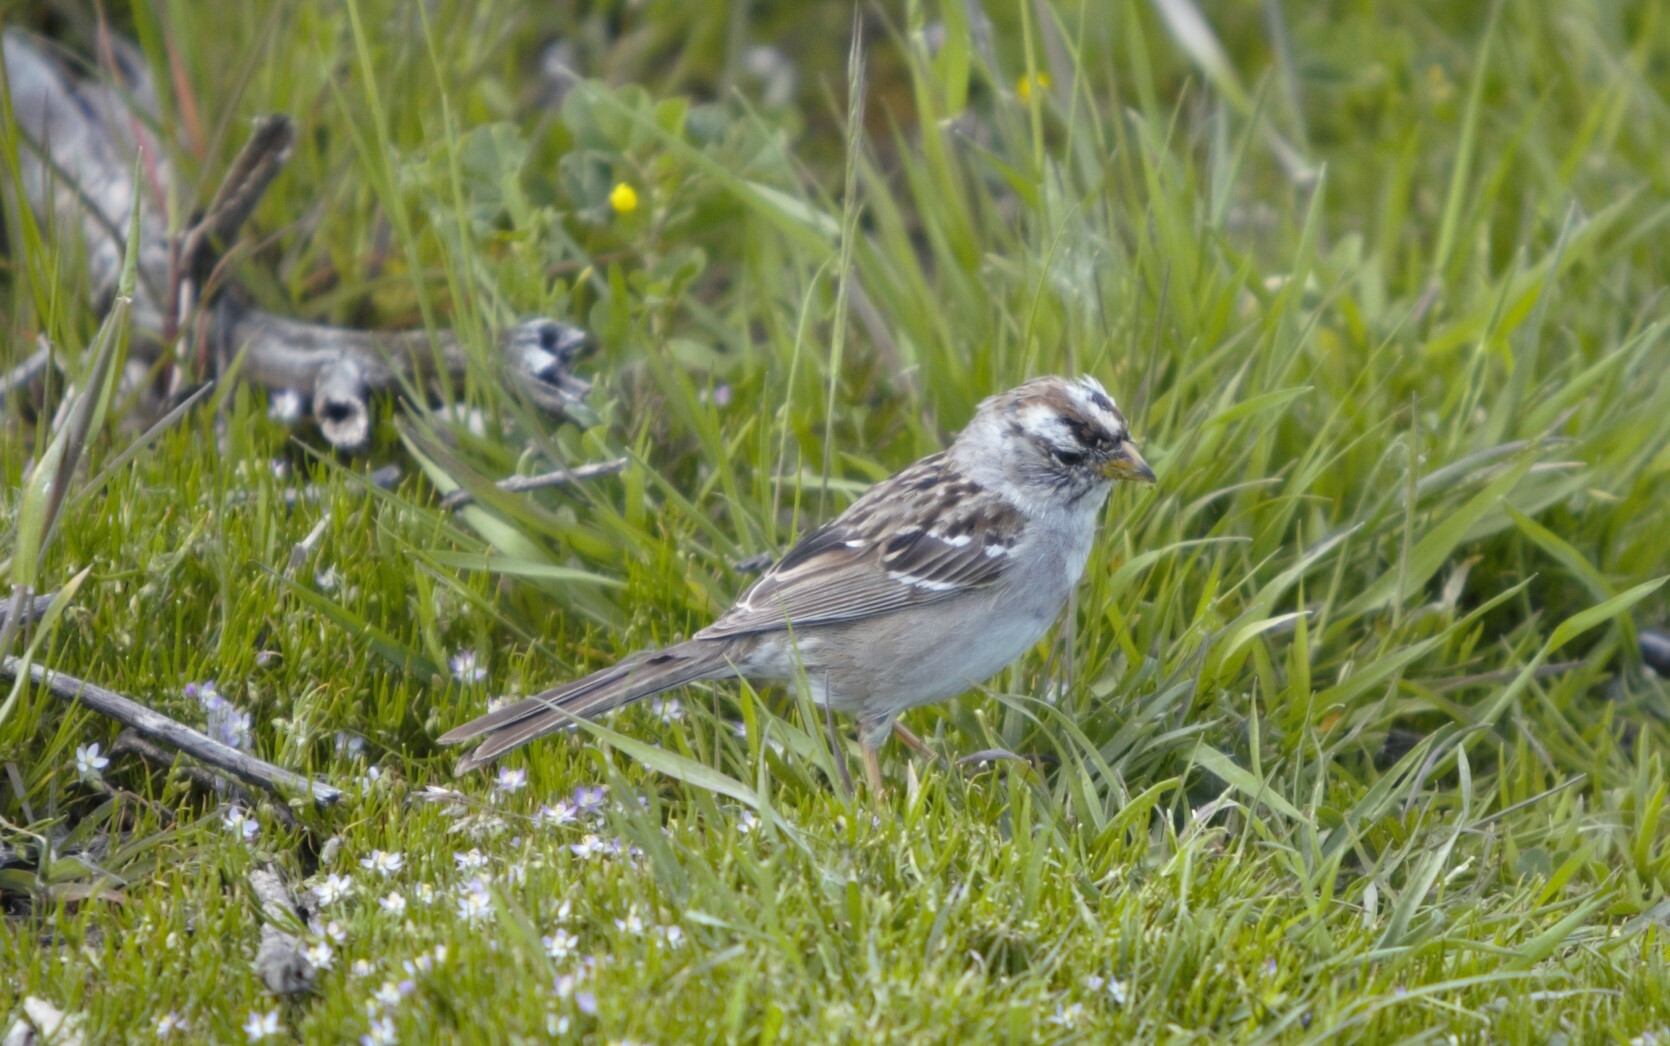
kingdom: Animalia
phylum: Chordata
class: Aves
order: Passeriformes
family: Passerellidae
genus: Zonotrichia
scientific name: Zonotrichia leucophrys
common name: White-crowned sparrow
